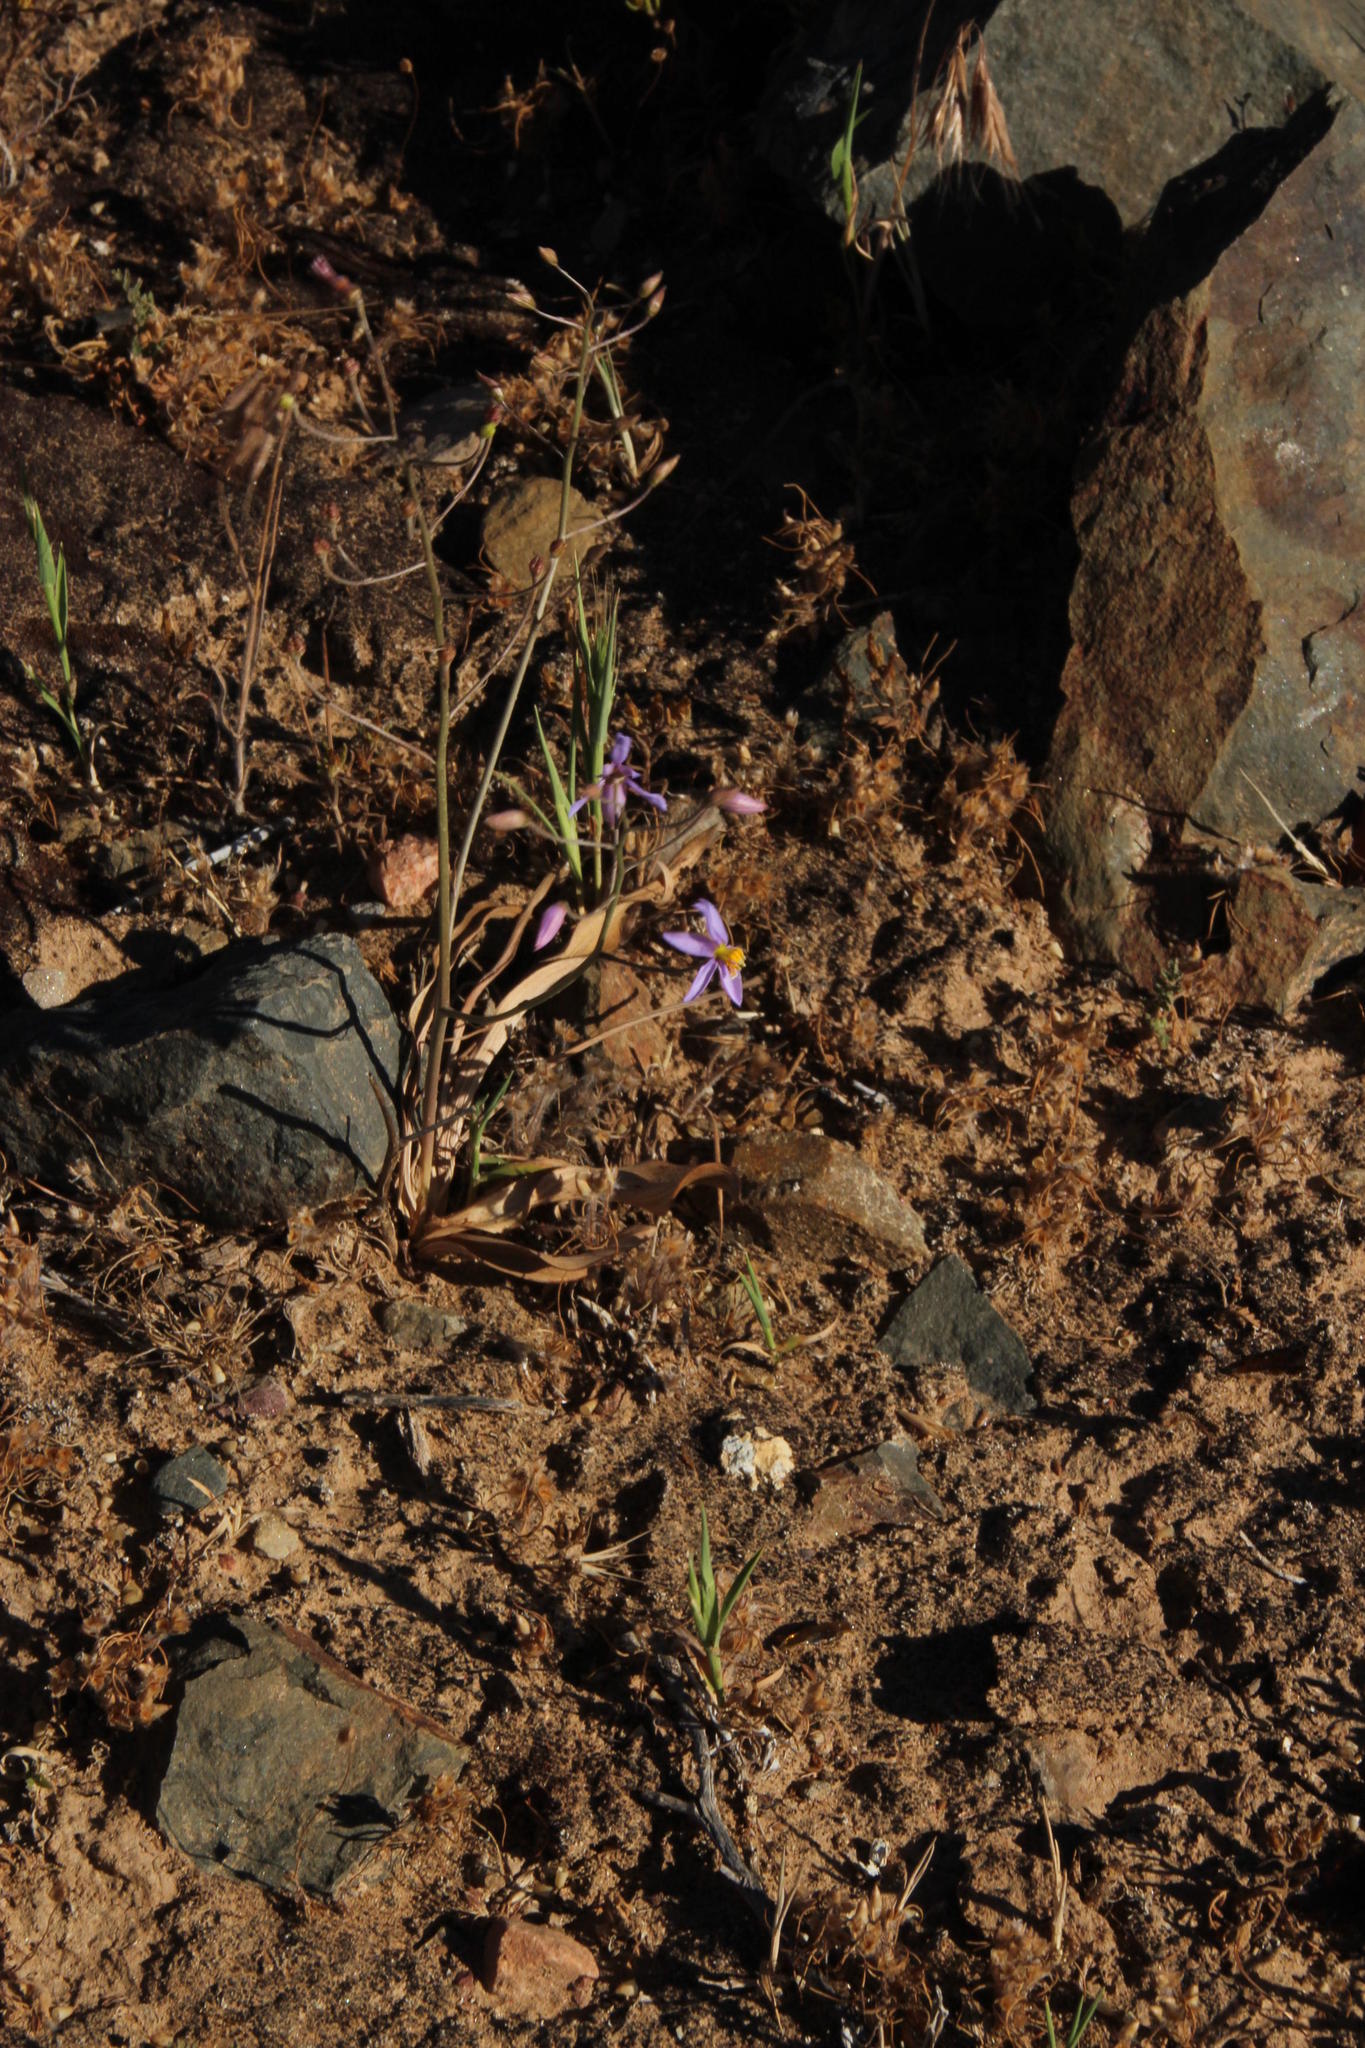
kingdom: Plantae
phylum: Tracheophyta
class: Liliopsida
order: Asparagales
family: Tecophilaeaceae
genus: Cyanella
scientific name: Cyanella hyacinthoides
